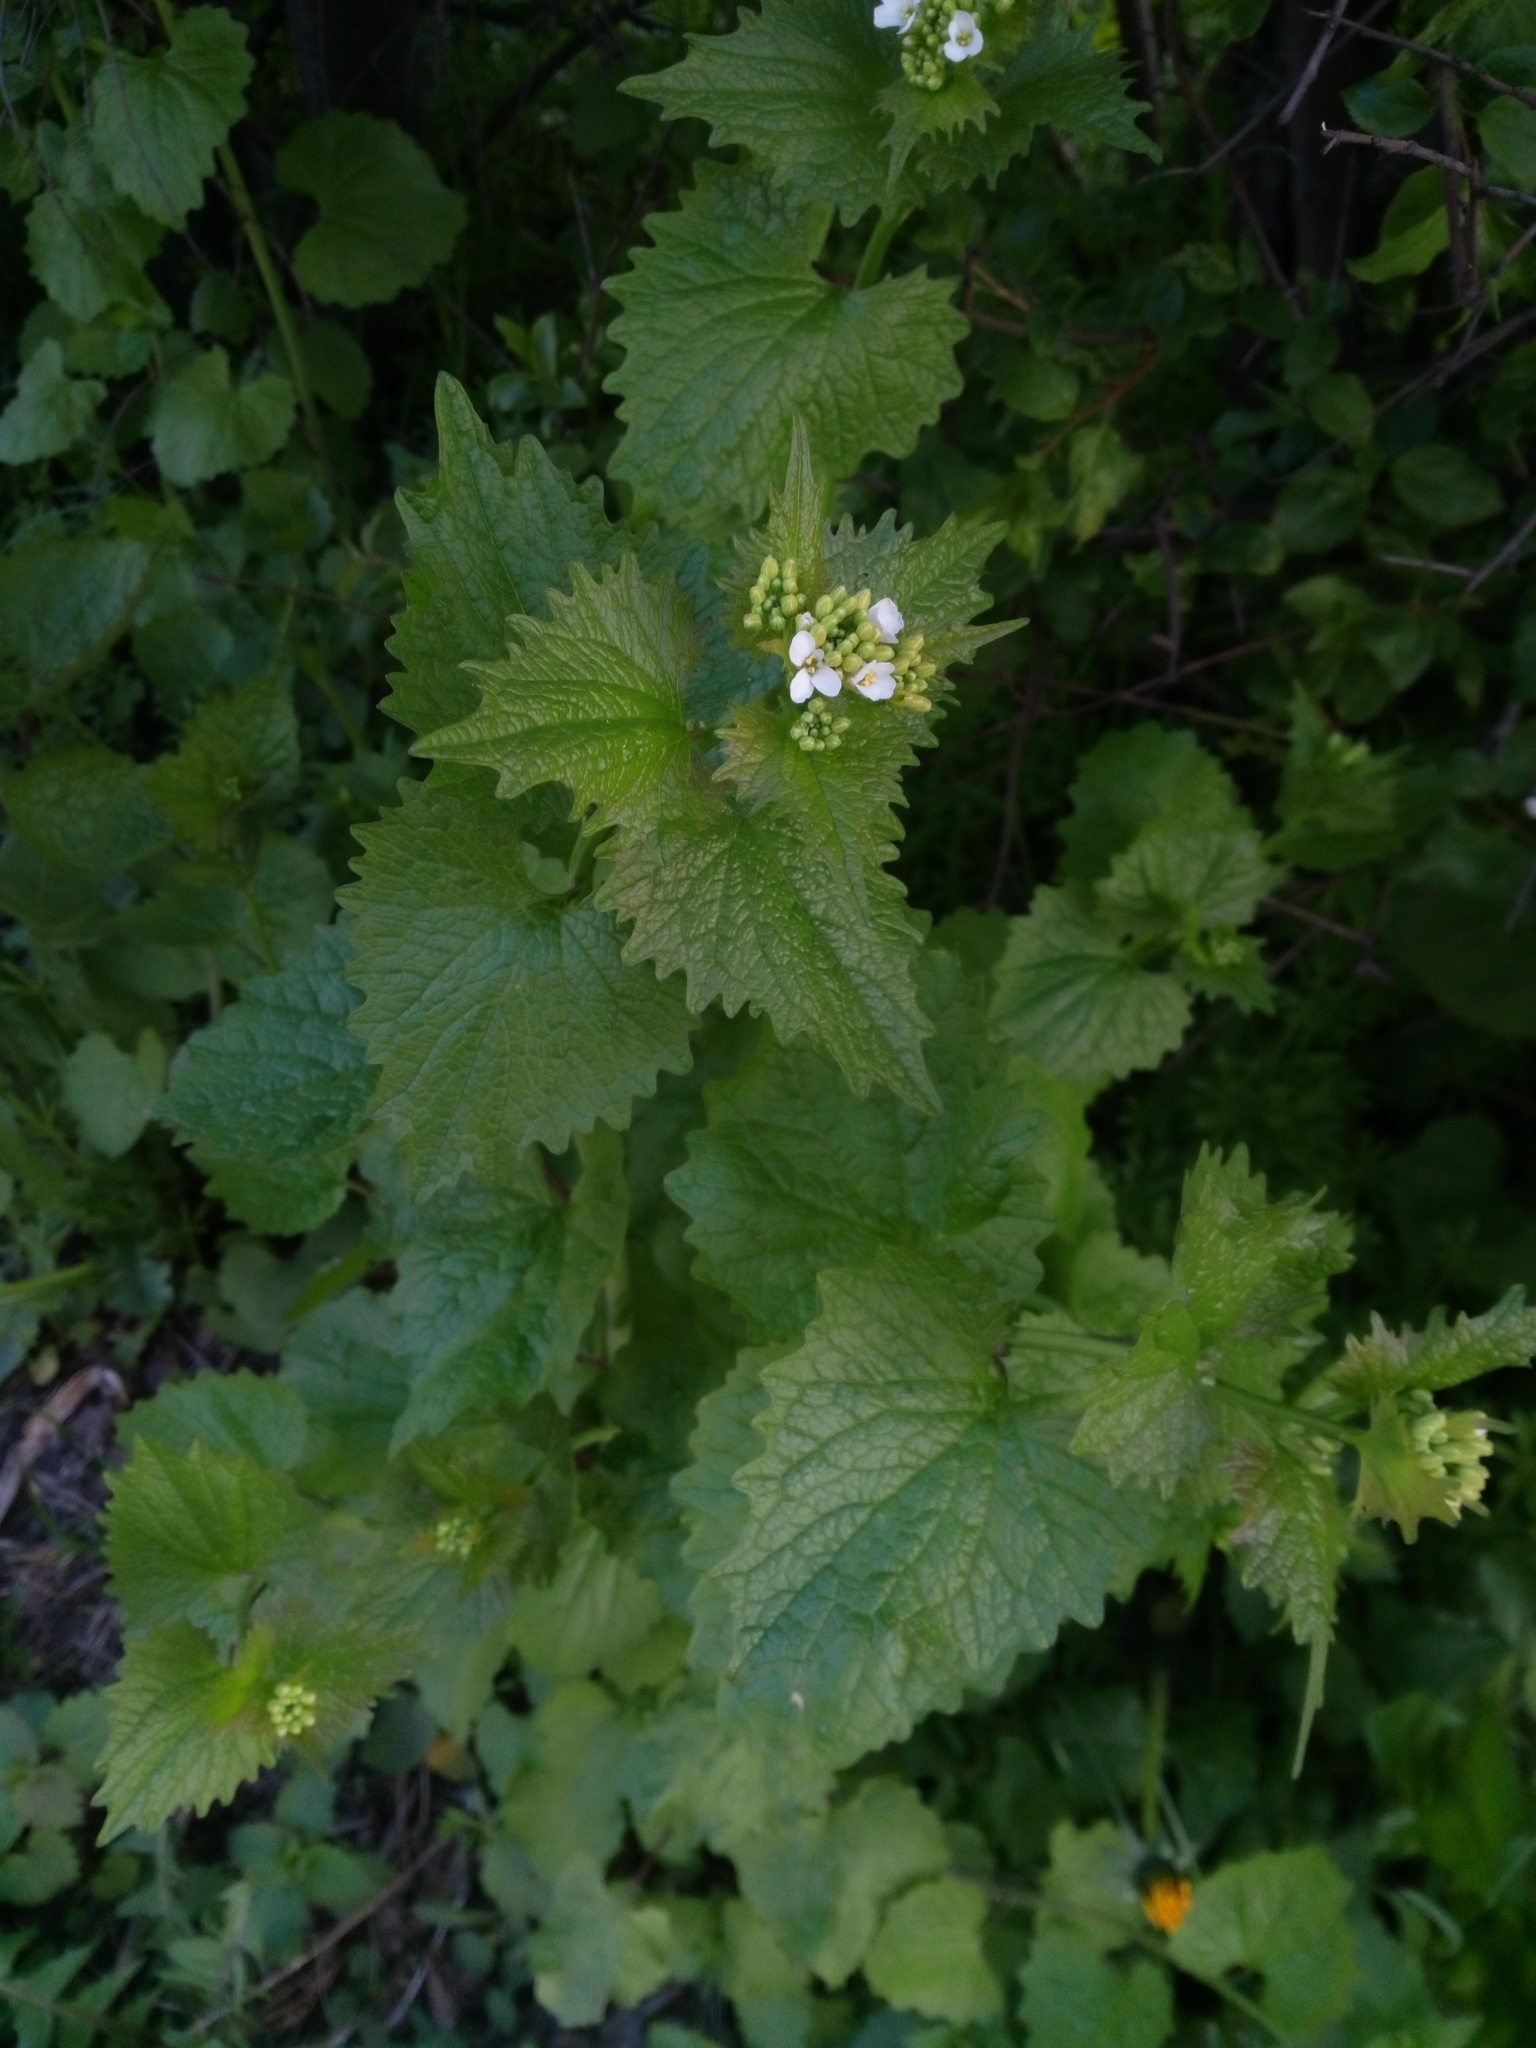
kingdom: Plantae
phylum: Tracheophyta
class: Magnoliopsida
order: Brassicales
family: Brassicaceae
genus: Alliaria
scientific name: Alliaria petiolata
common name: Garlic mustard
